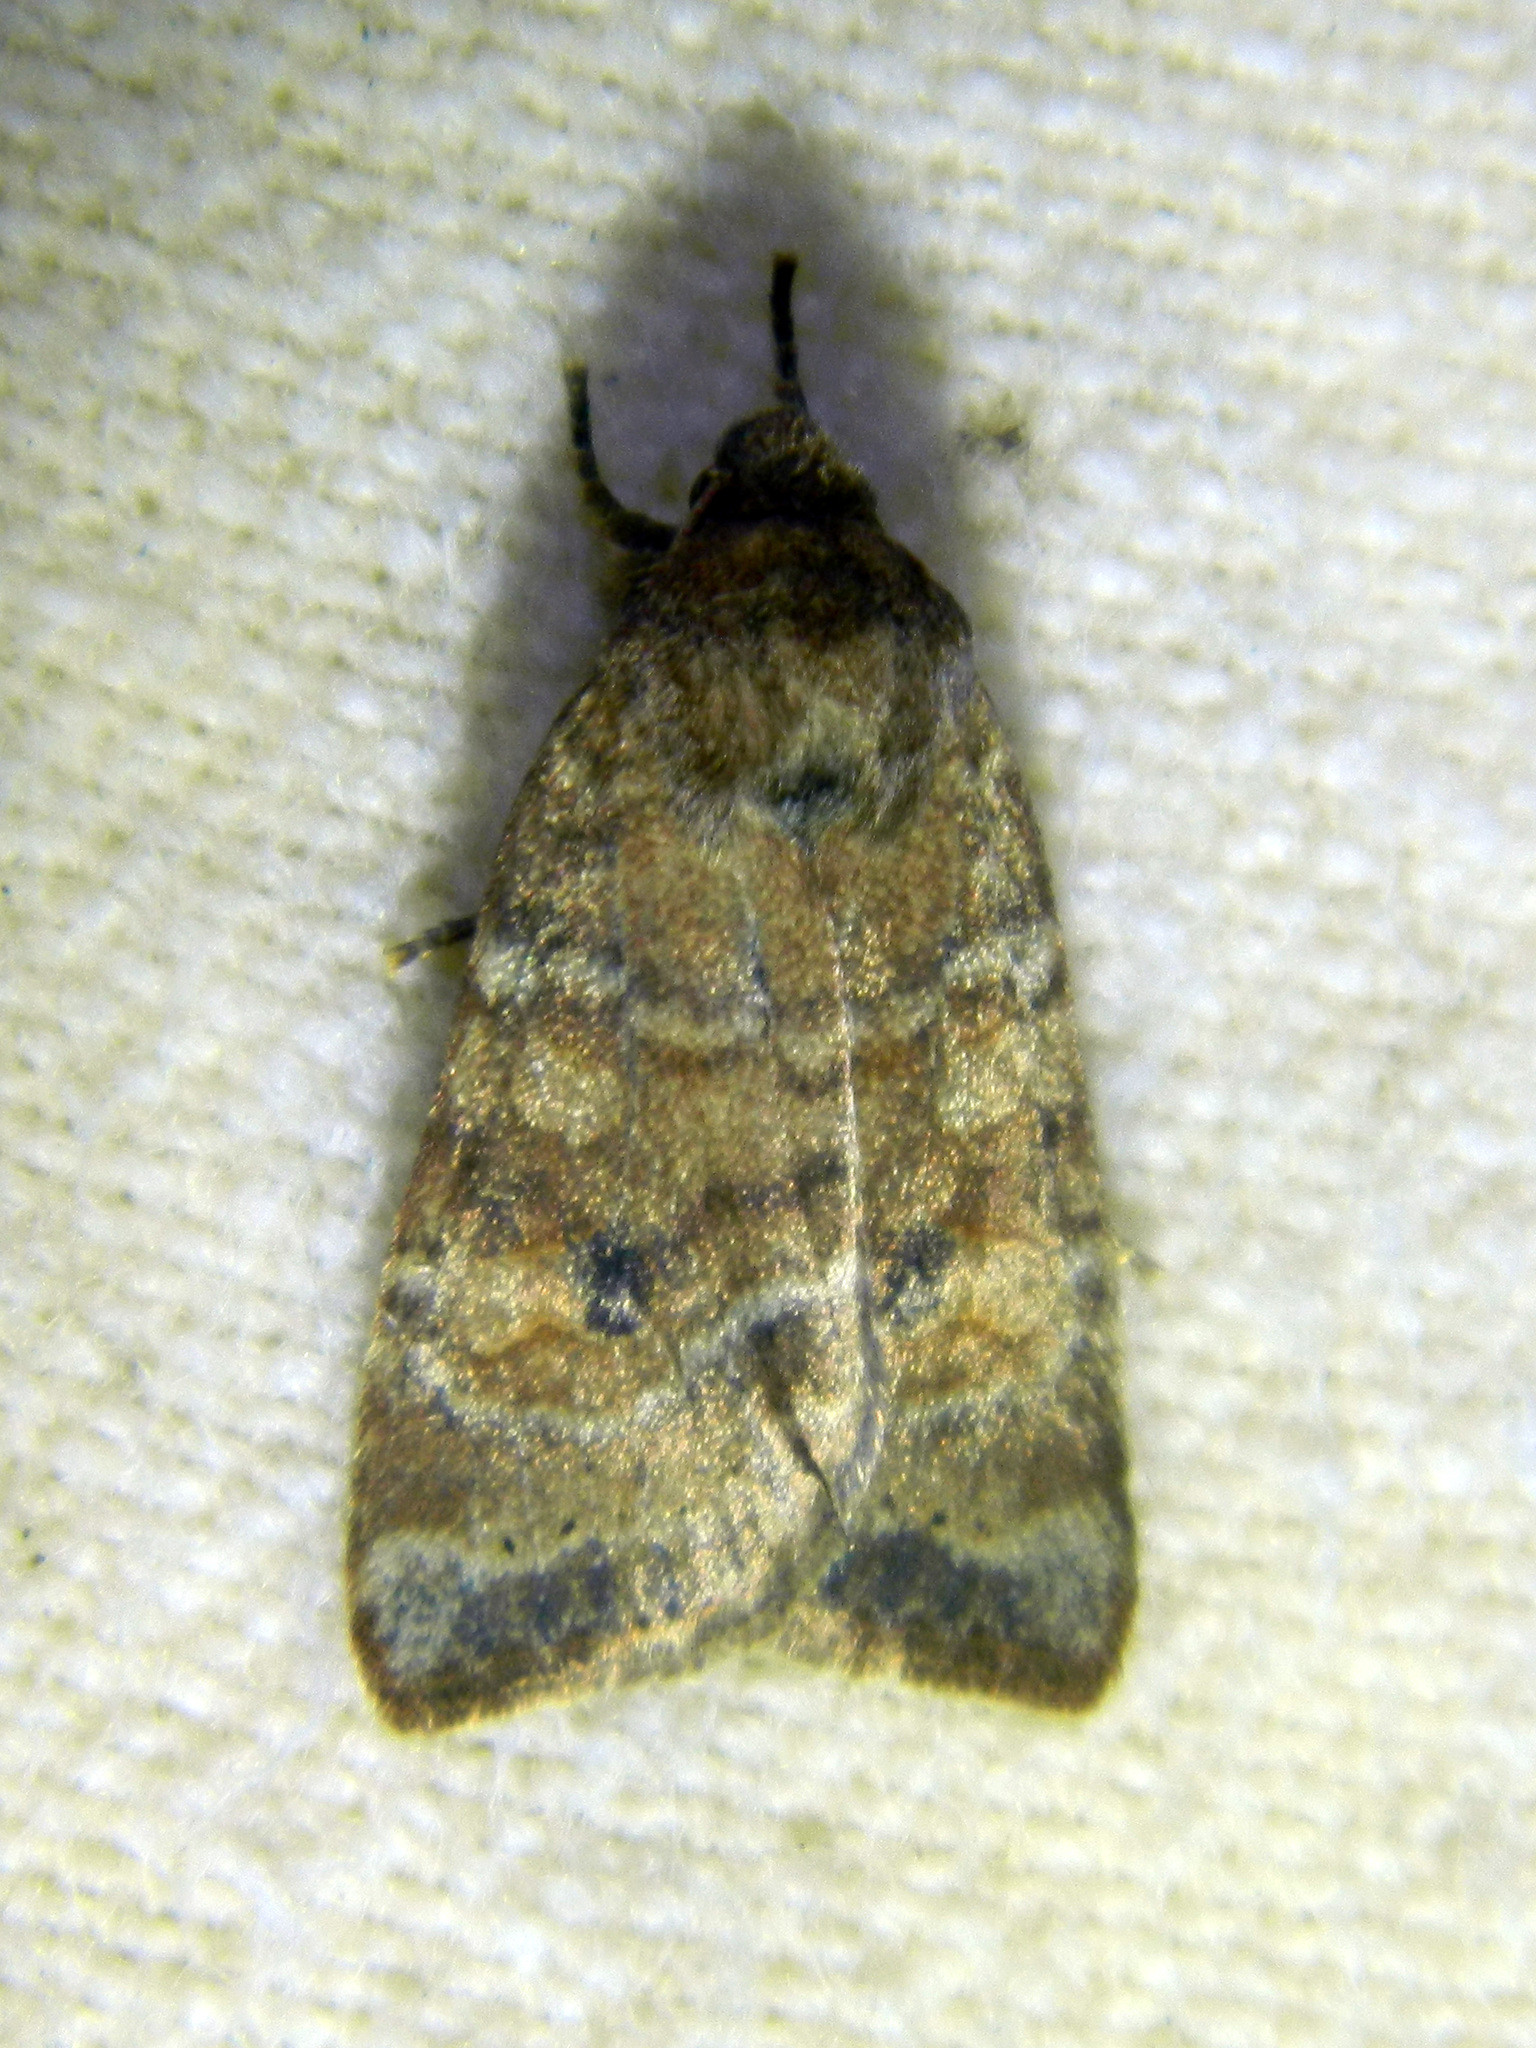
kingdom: Animalia
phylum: Arthropoda
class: Insecta
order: Lepidoptera
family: Noctuidae
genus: Anathix
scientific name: Anathix puta
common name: Puta sallow
